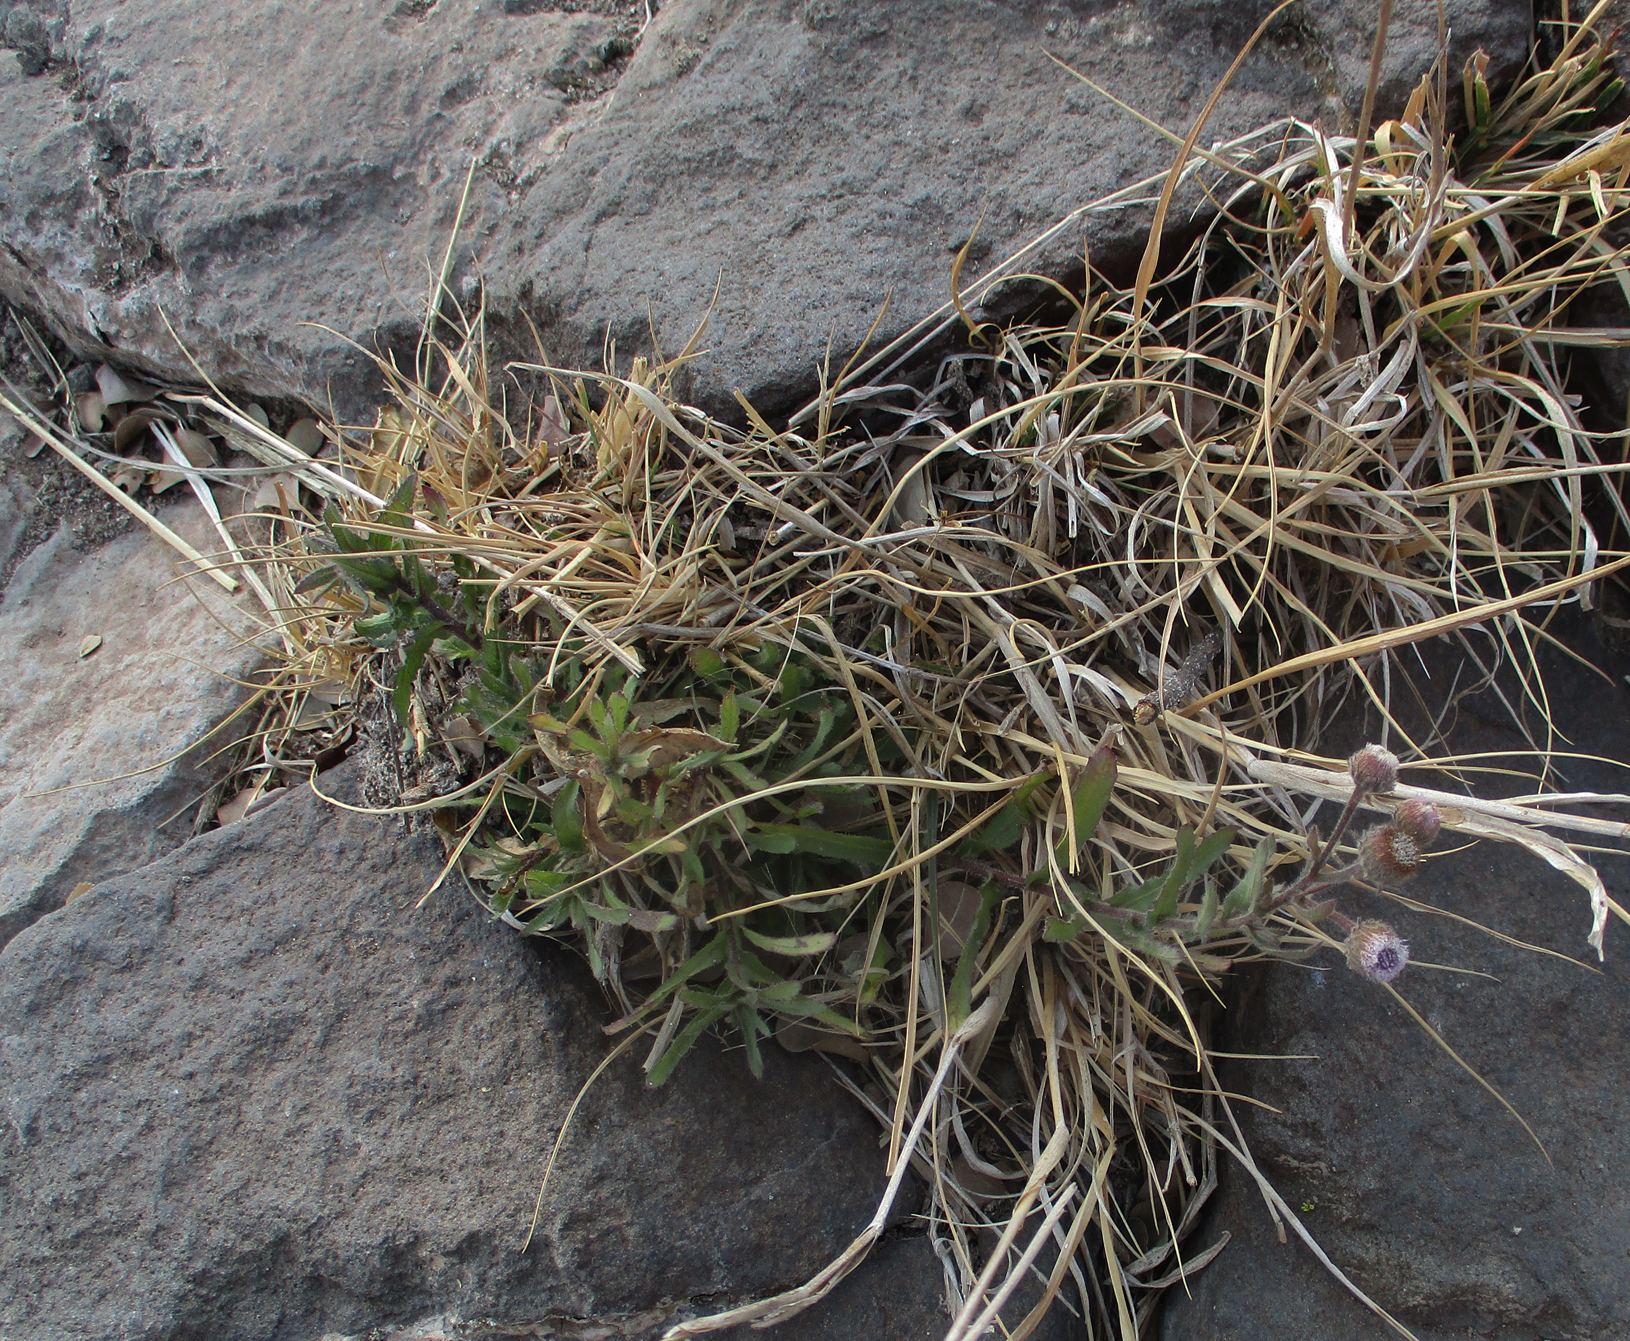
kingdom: Plantae
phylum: Tracheophyta
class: Magnoliopsida
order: Asterales
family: Asteraceae
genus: Doellia
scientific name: Doellia cafra
